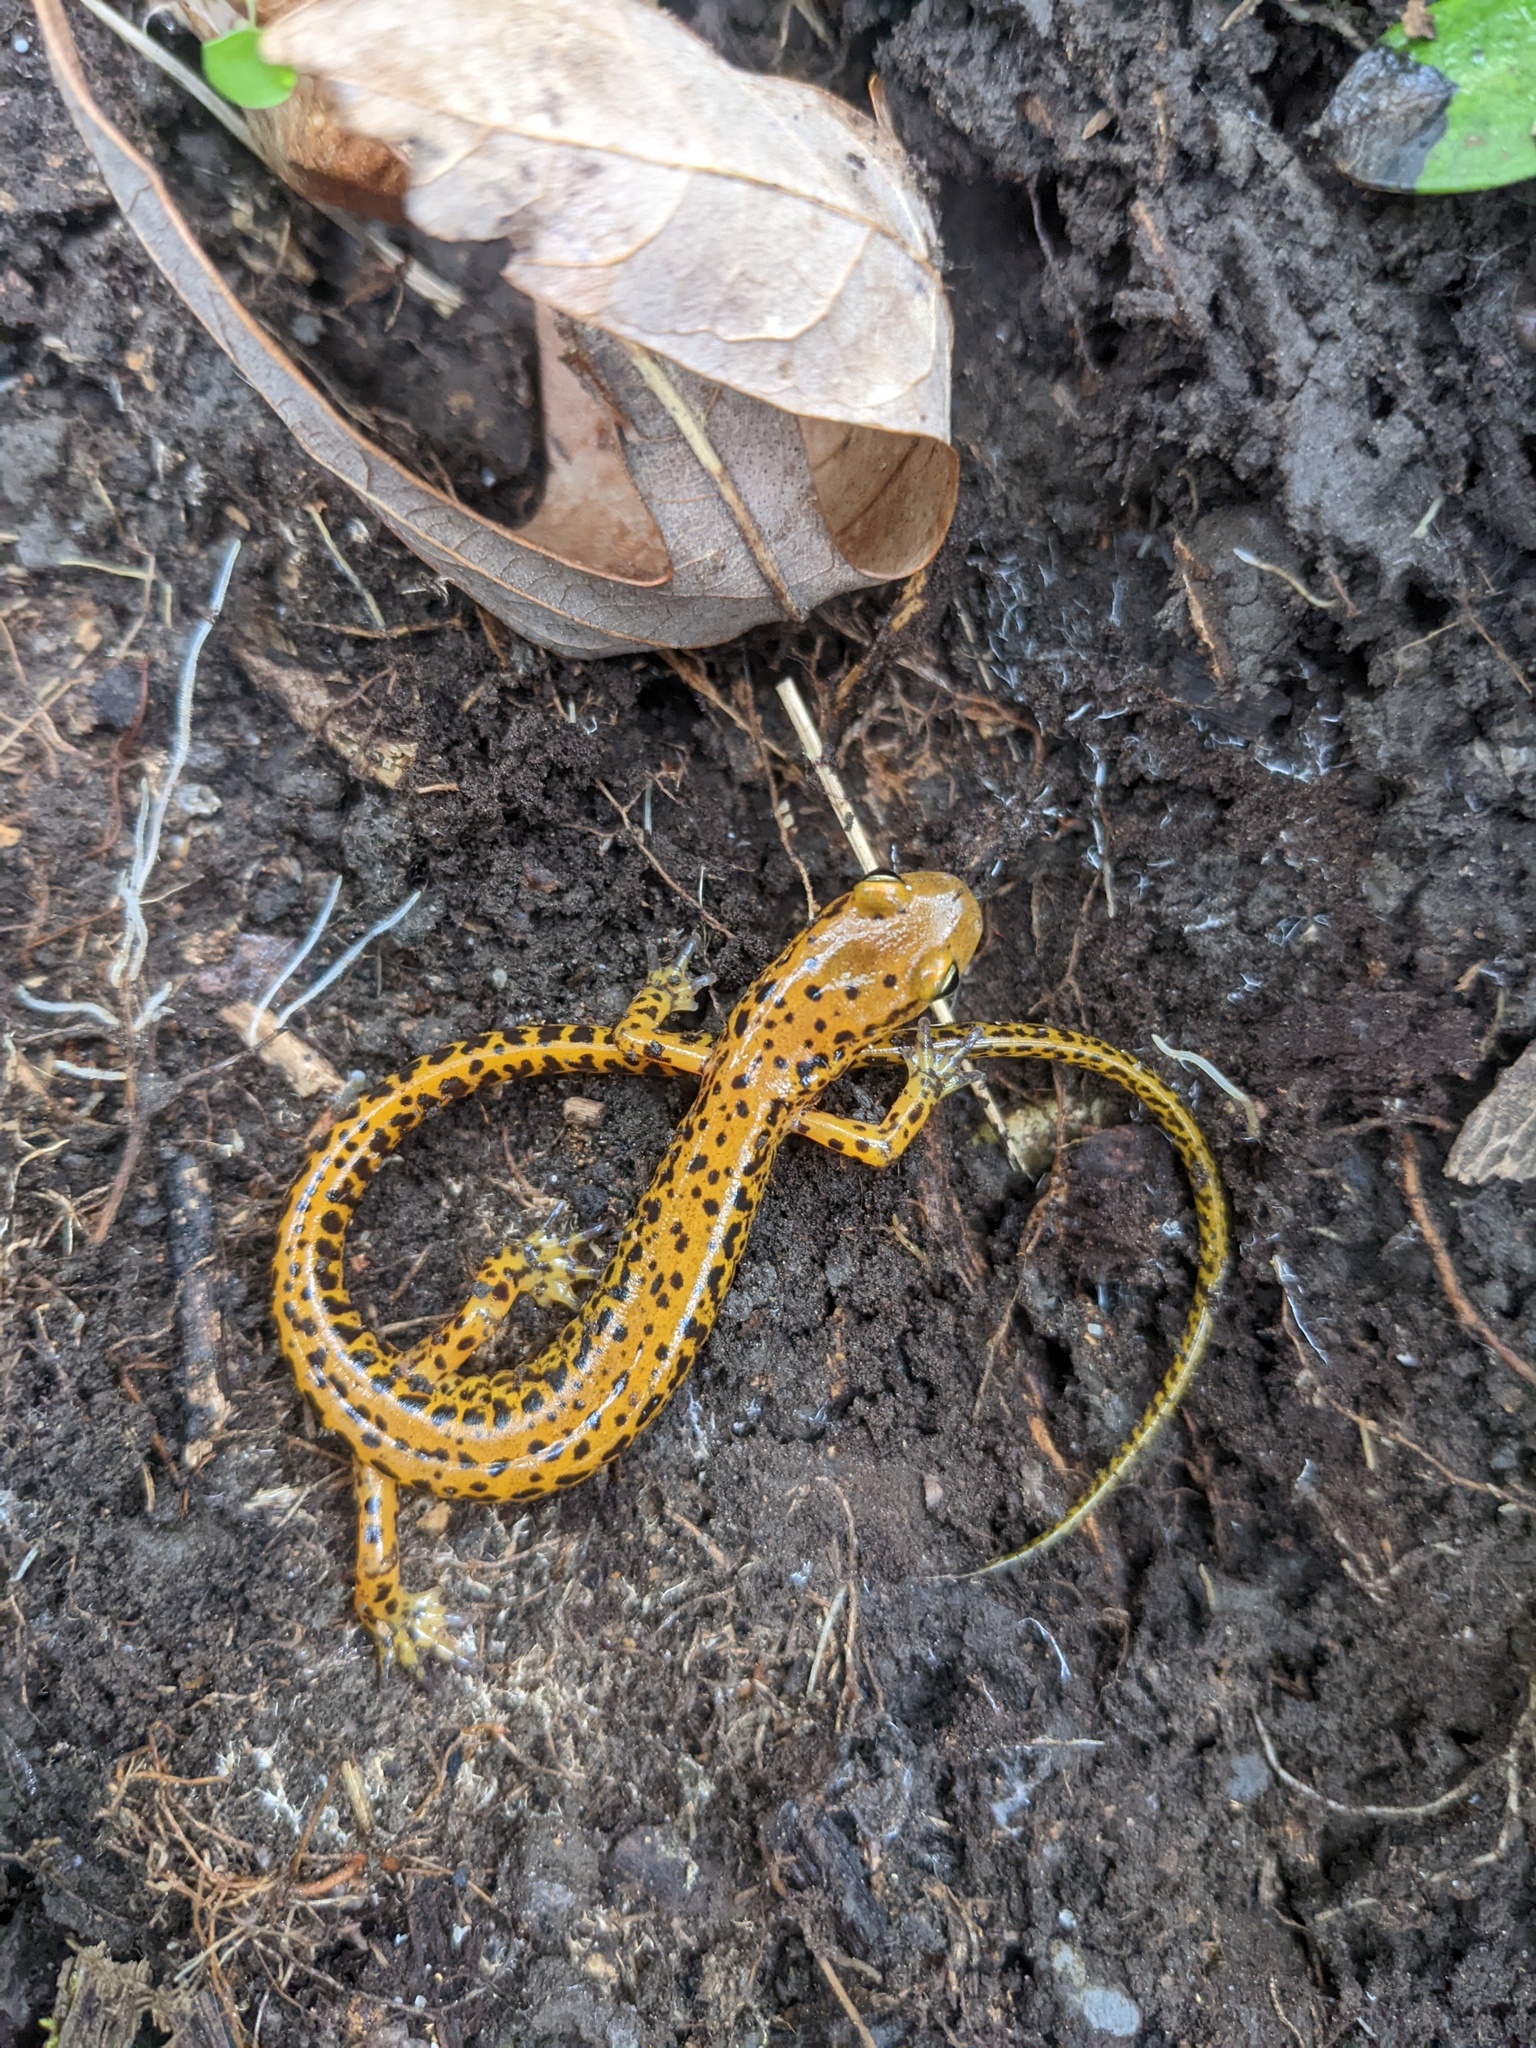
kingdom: Animalia
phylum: Chordata
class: Amphibia
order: Caudata
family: Plethodontidae
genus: Eurycea
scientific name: Eurycea longicauda
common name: Long-tailed salamander
